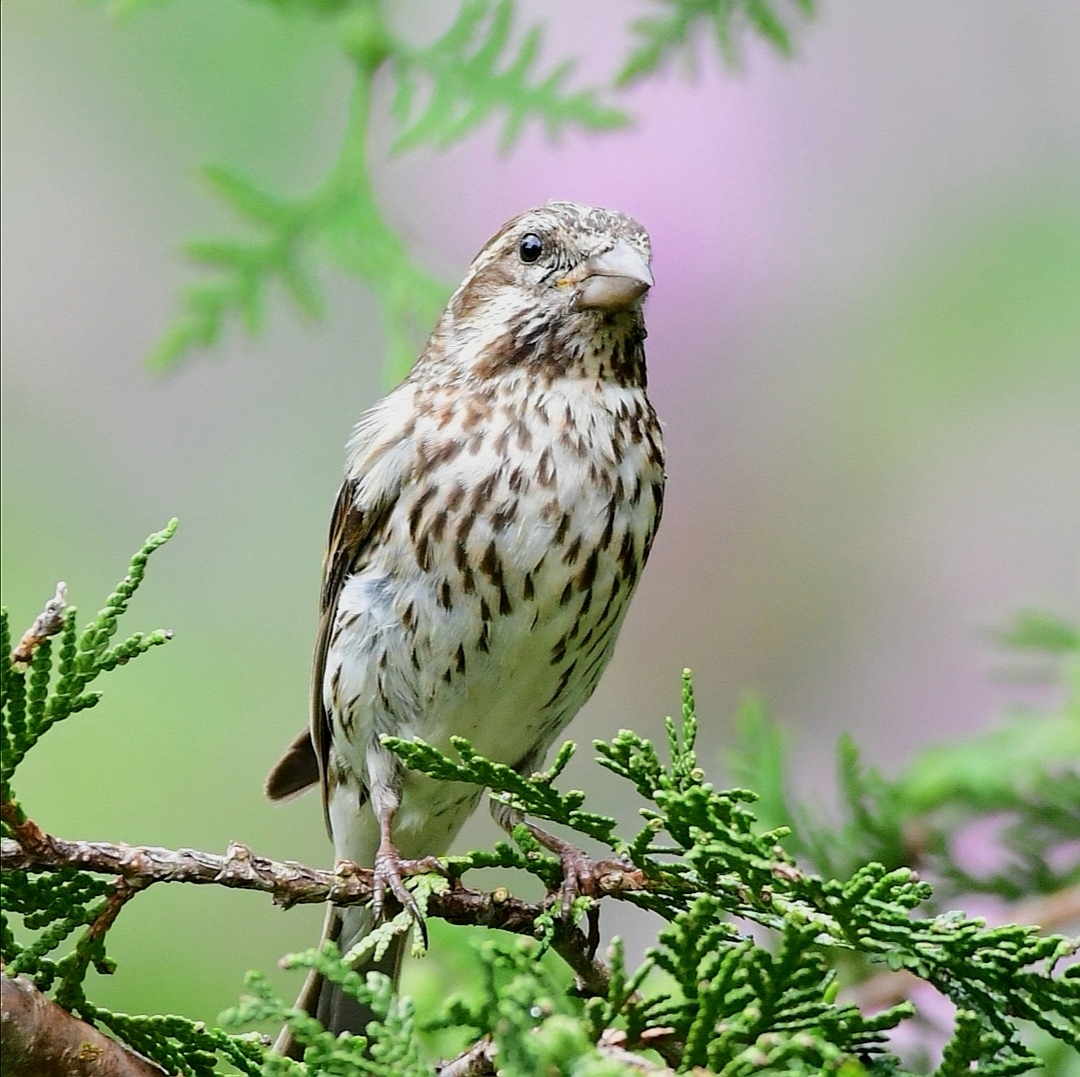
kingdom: Animalia
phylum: Chordata
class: Aves
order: Passeriformes
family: Fringillidae
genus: Haemorhous
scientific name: Haemorhous purpureus
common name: Purple finch
